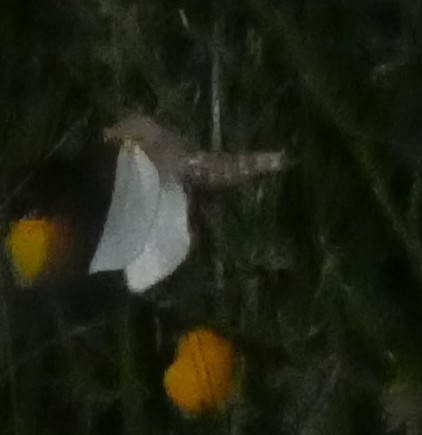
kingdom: Animalia
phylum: Arthropoda
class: Insecta
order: Lepidoptera
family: Hepialidae
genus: Hepialus
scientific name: Hepialus humuli
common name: Ghost moth
